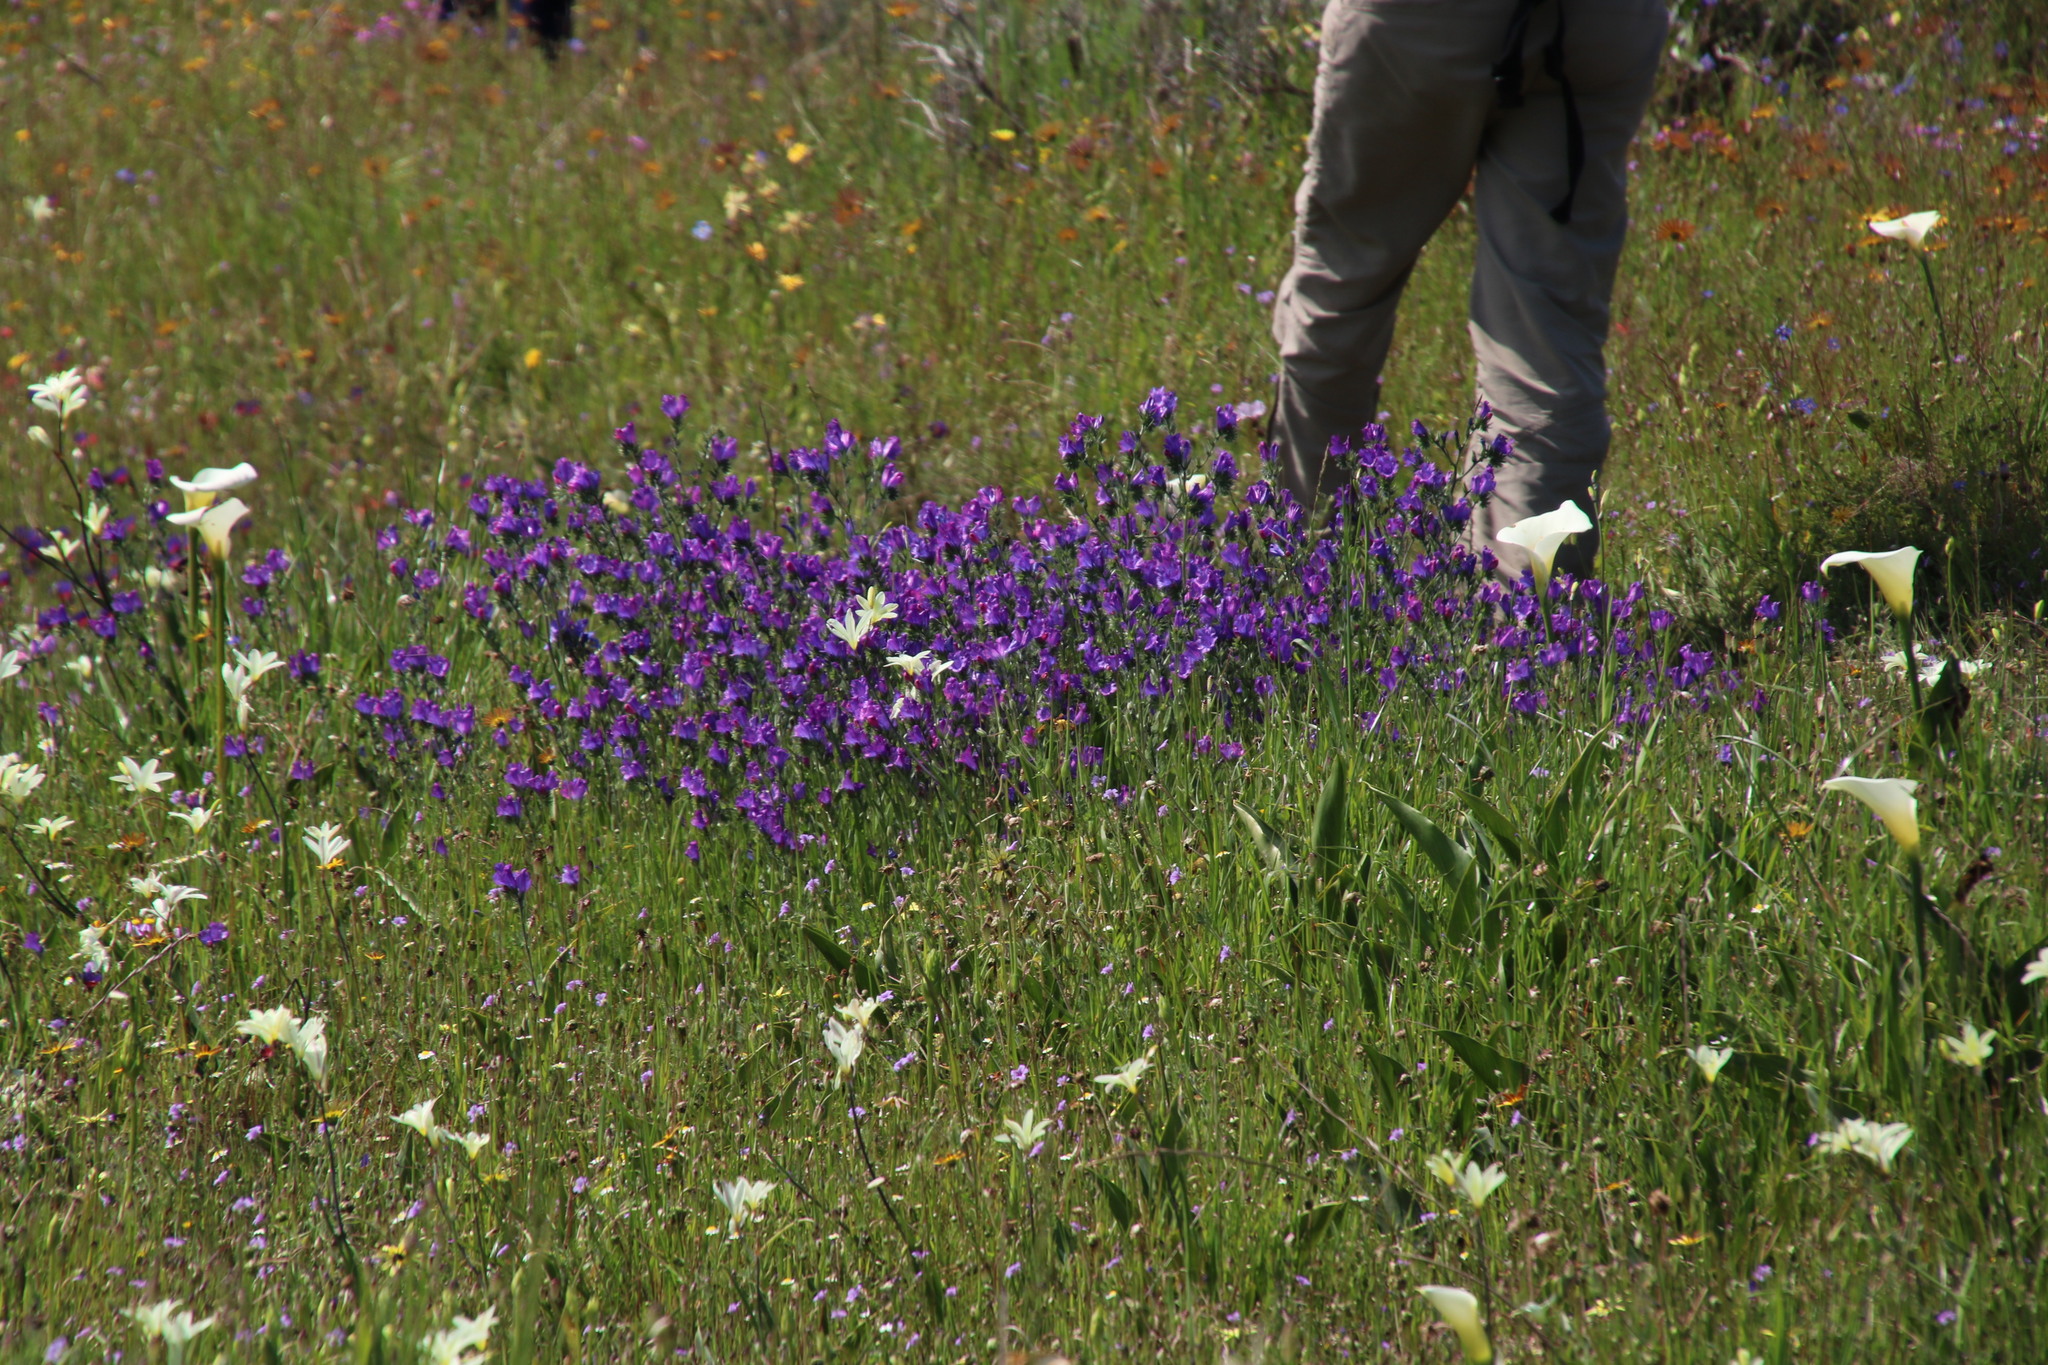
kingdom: Plantae
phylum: Tracheophyta
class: Magnoliopsida
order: Boraginales
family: Boraginaceae
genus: Echium
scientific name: Echium plantagineum
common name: Purple viper's-bugloss
